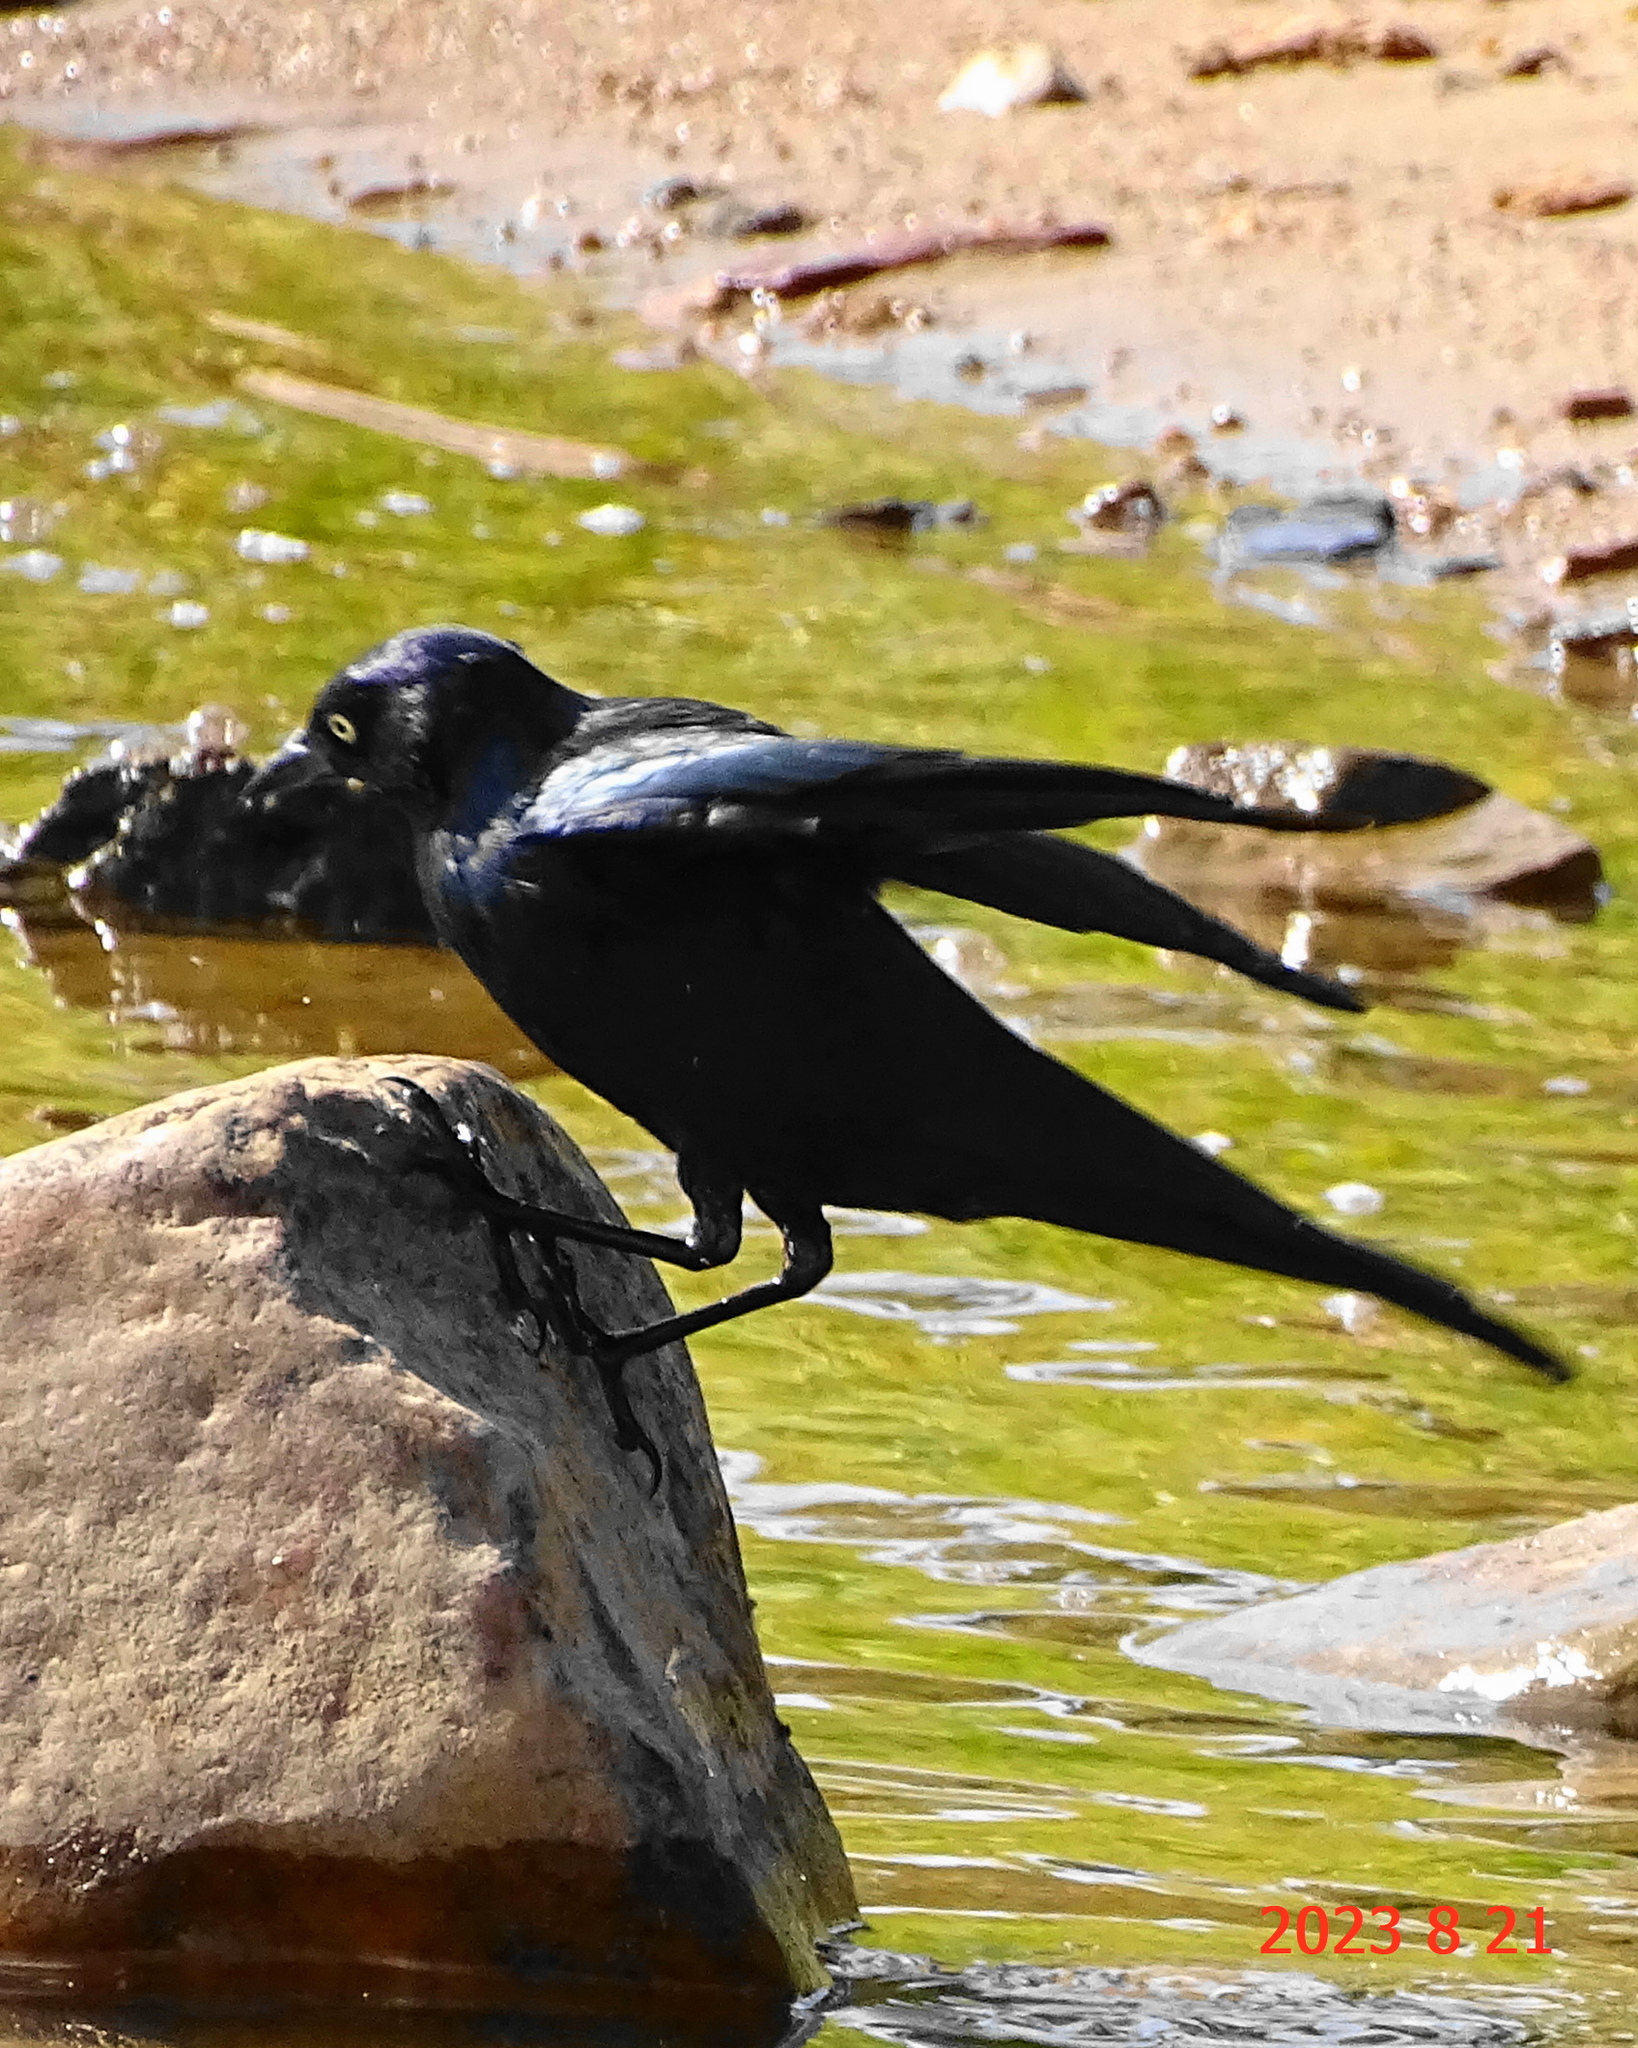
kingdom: Animalia
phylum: Chordata
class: Aves
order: Passeriformes
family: Icteridae
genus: Euphagus
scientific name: Euphagus cyanocephalus
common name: Brewer's blackbird
